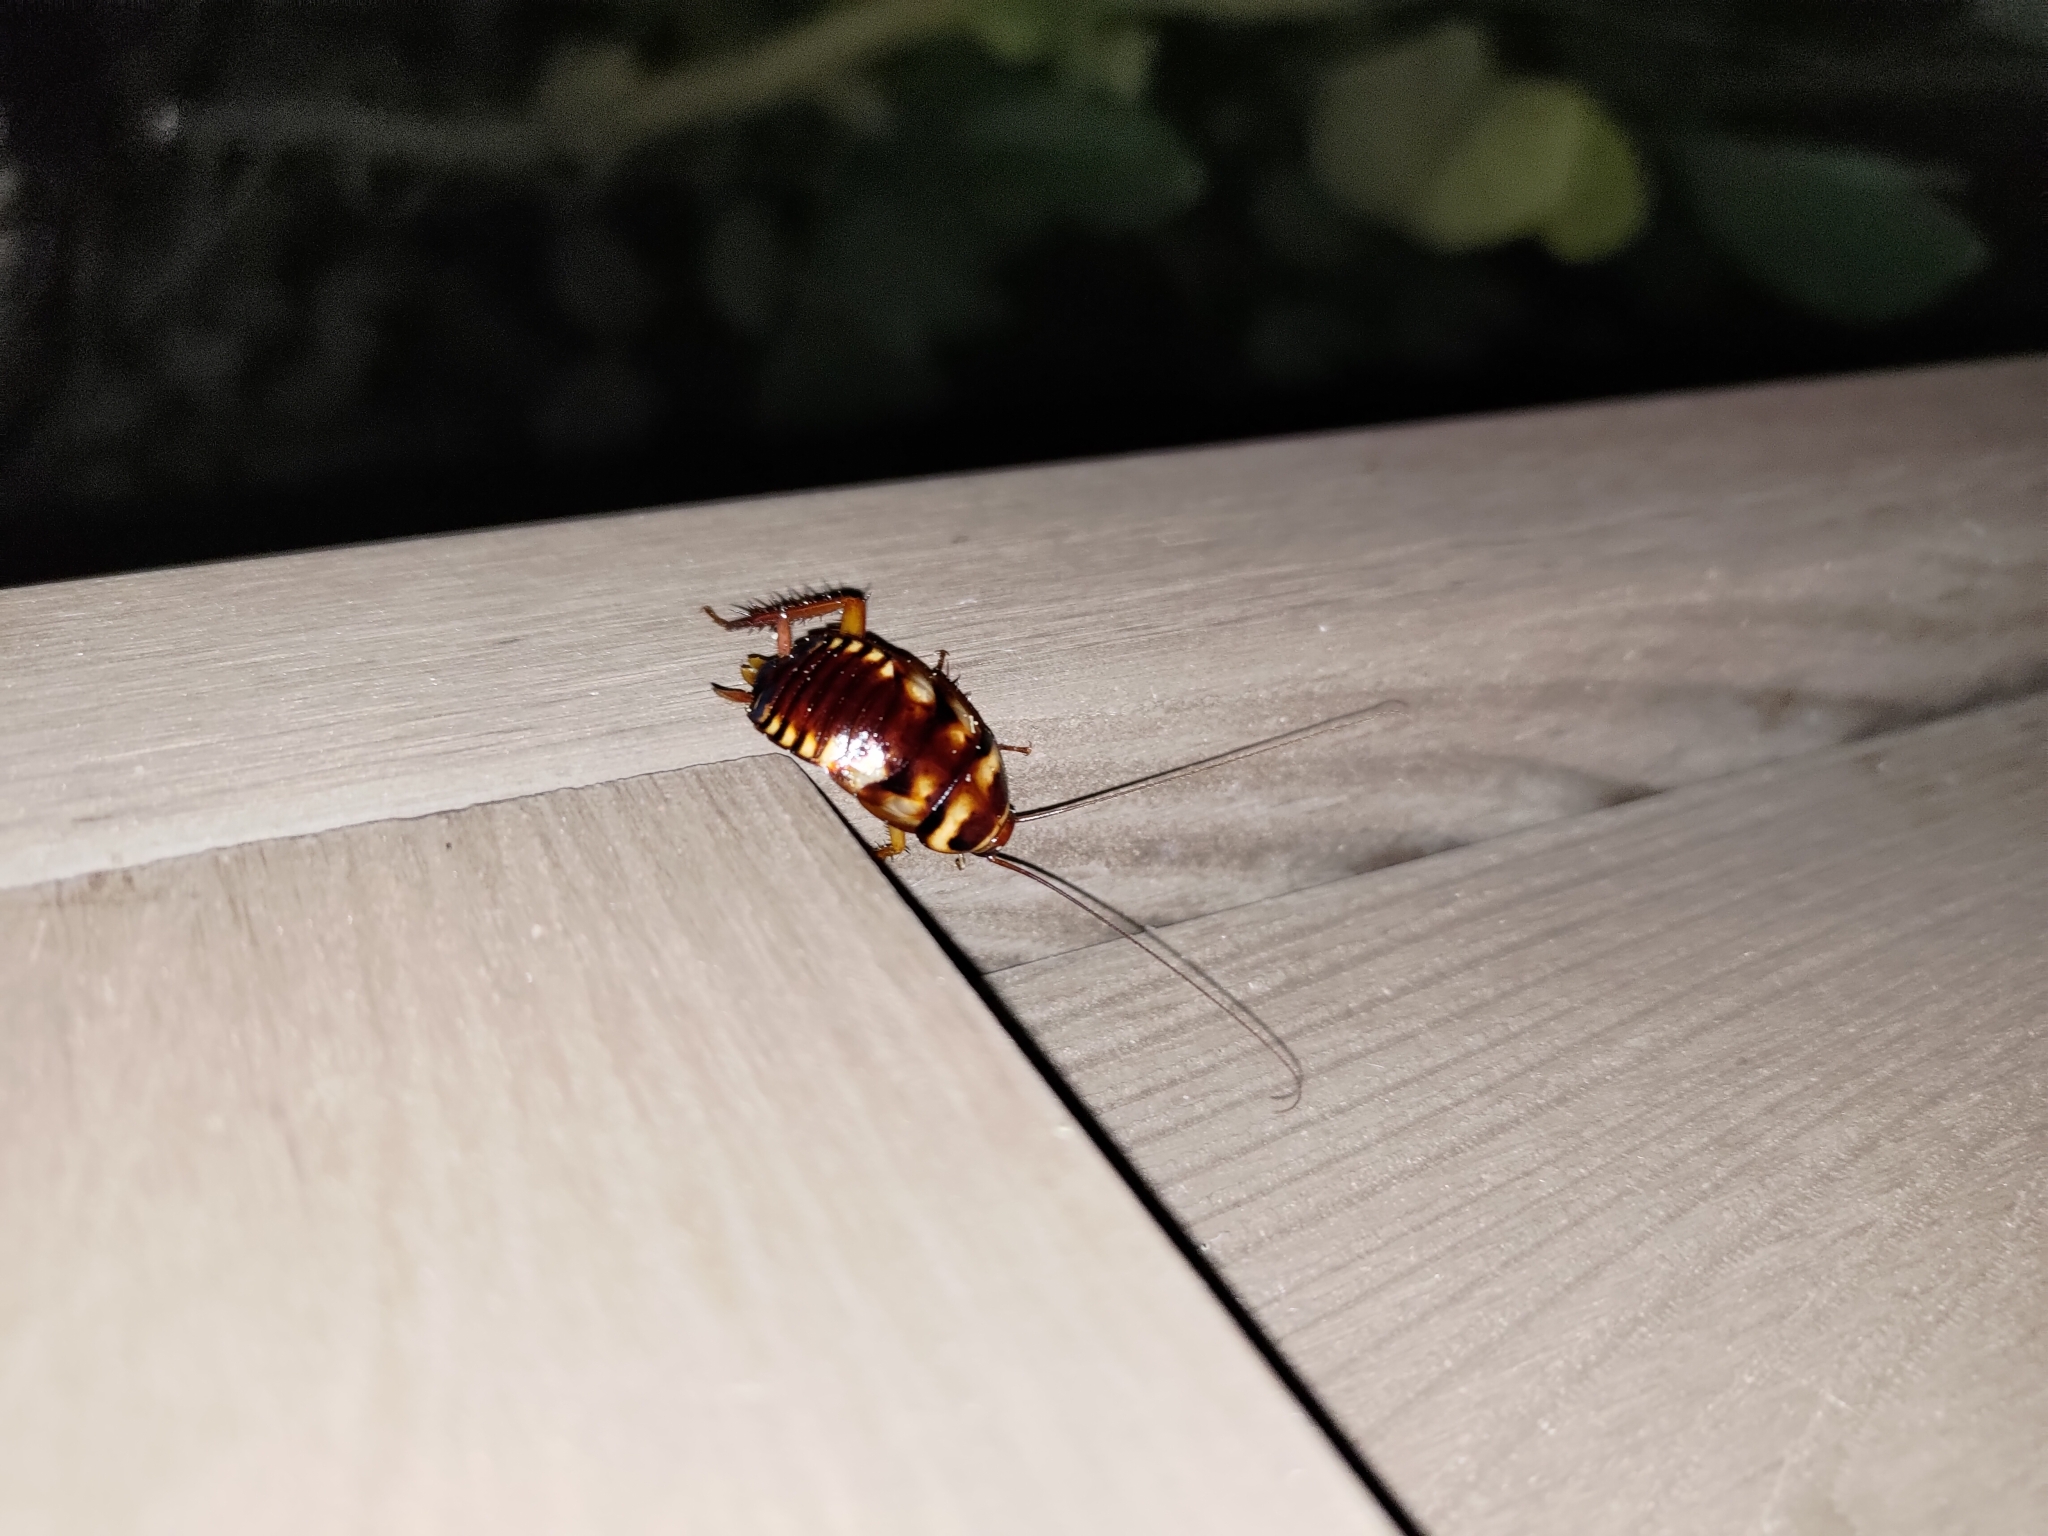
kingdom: Animalia
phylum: Arthropoda
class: Insecta
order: Blattodea
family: Blattidae
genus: Periplaneta
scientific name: Periplaneta australasiae
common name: Australian cockroach
